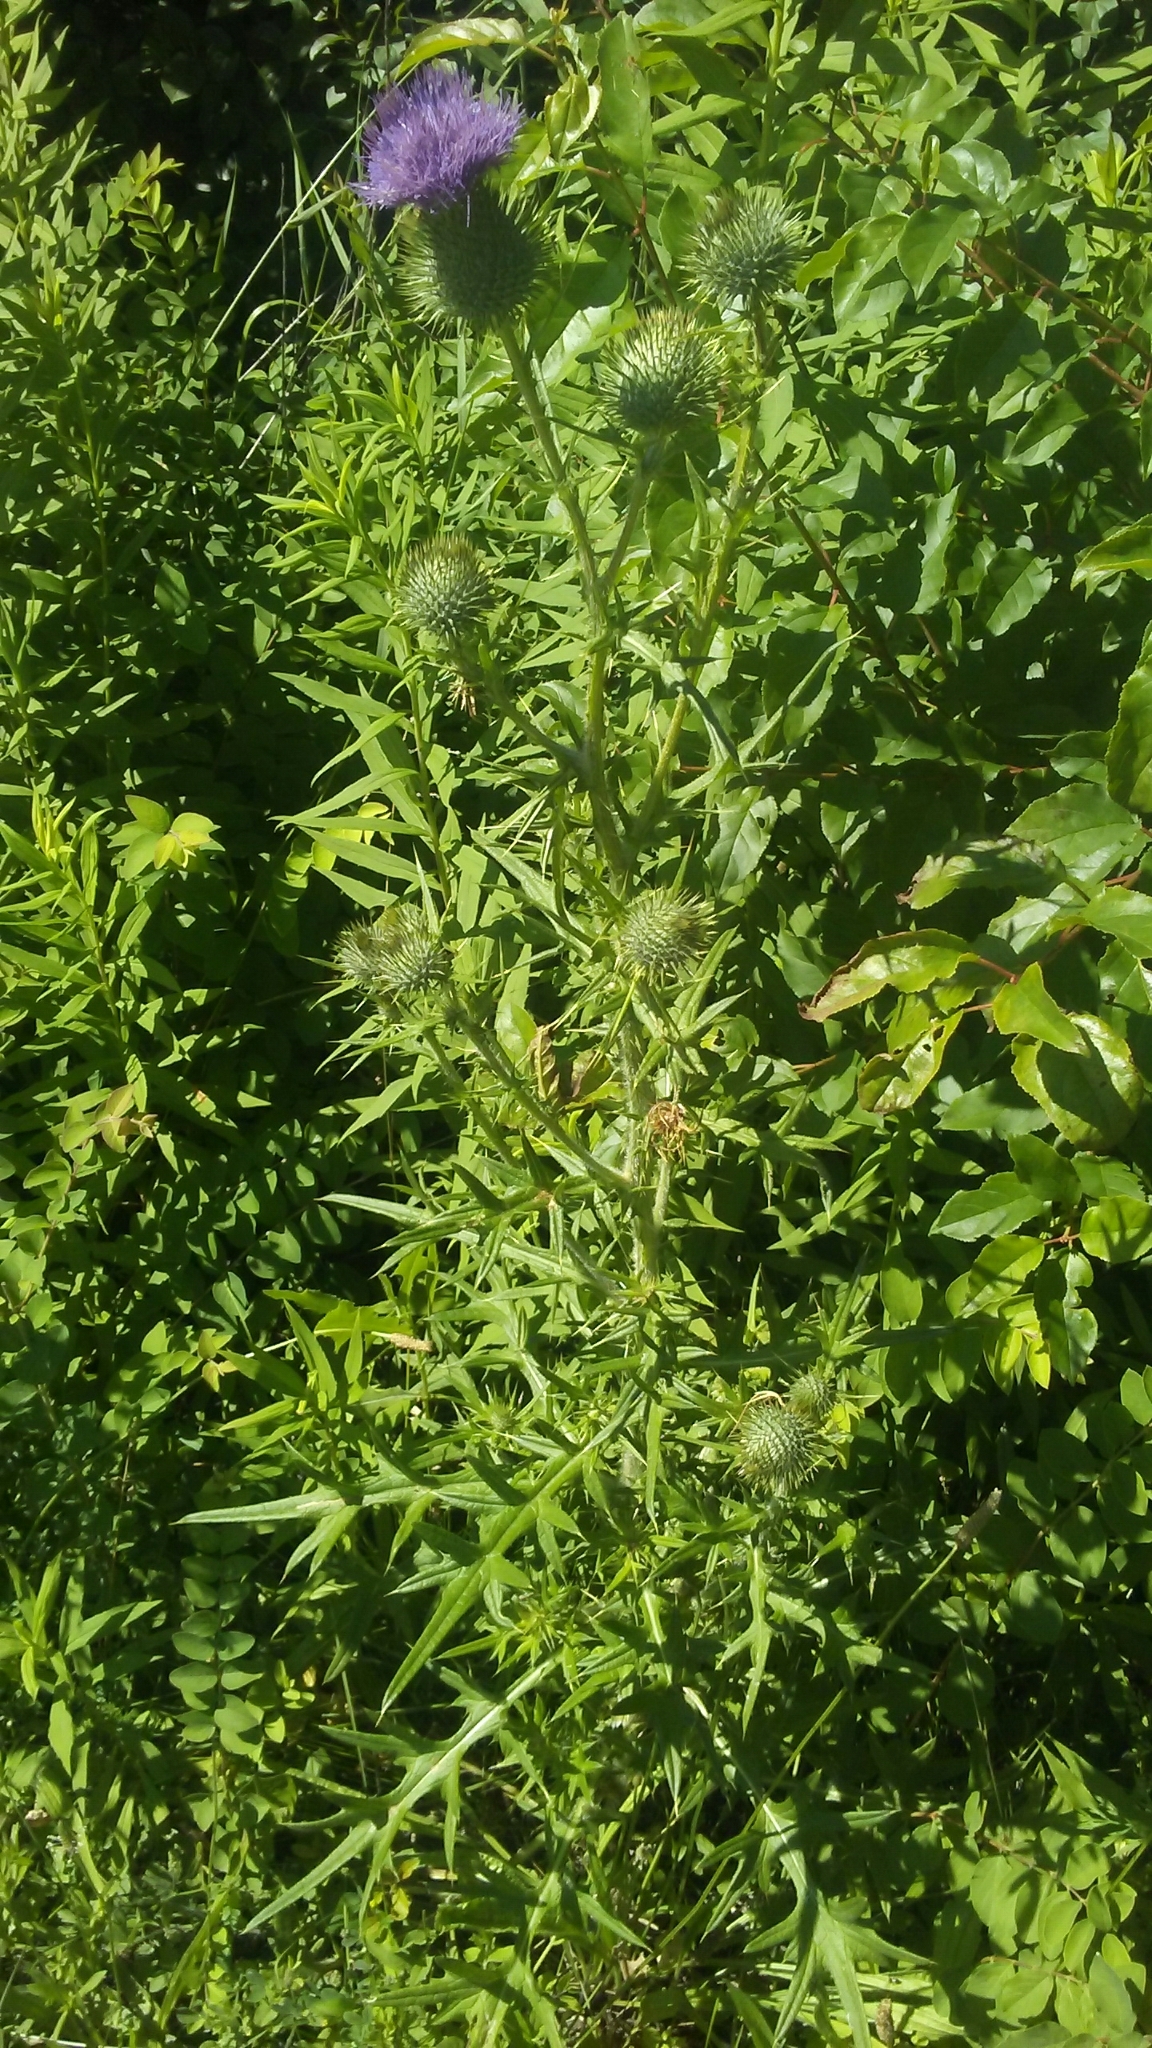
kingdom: Plantae
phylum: Tracheophyta
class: Magnoliopsida
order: Asterales
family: Asteraceae
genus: Cirsium
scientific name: Cirsium vulgare
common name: Bull thistle
